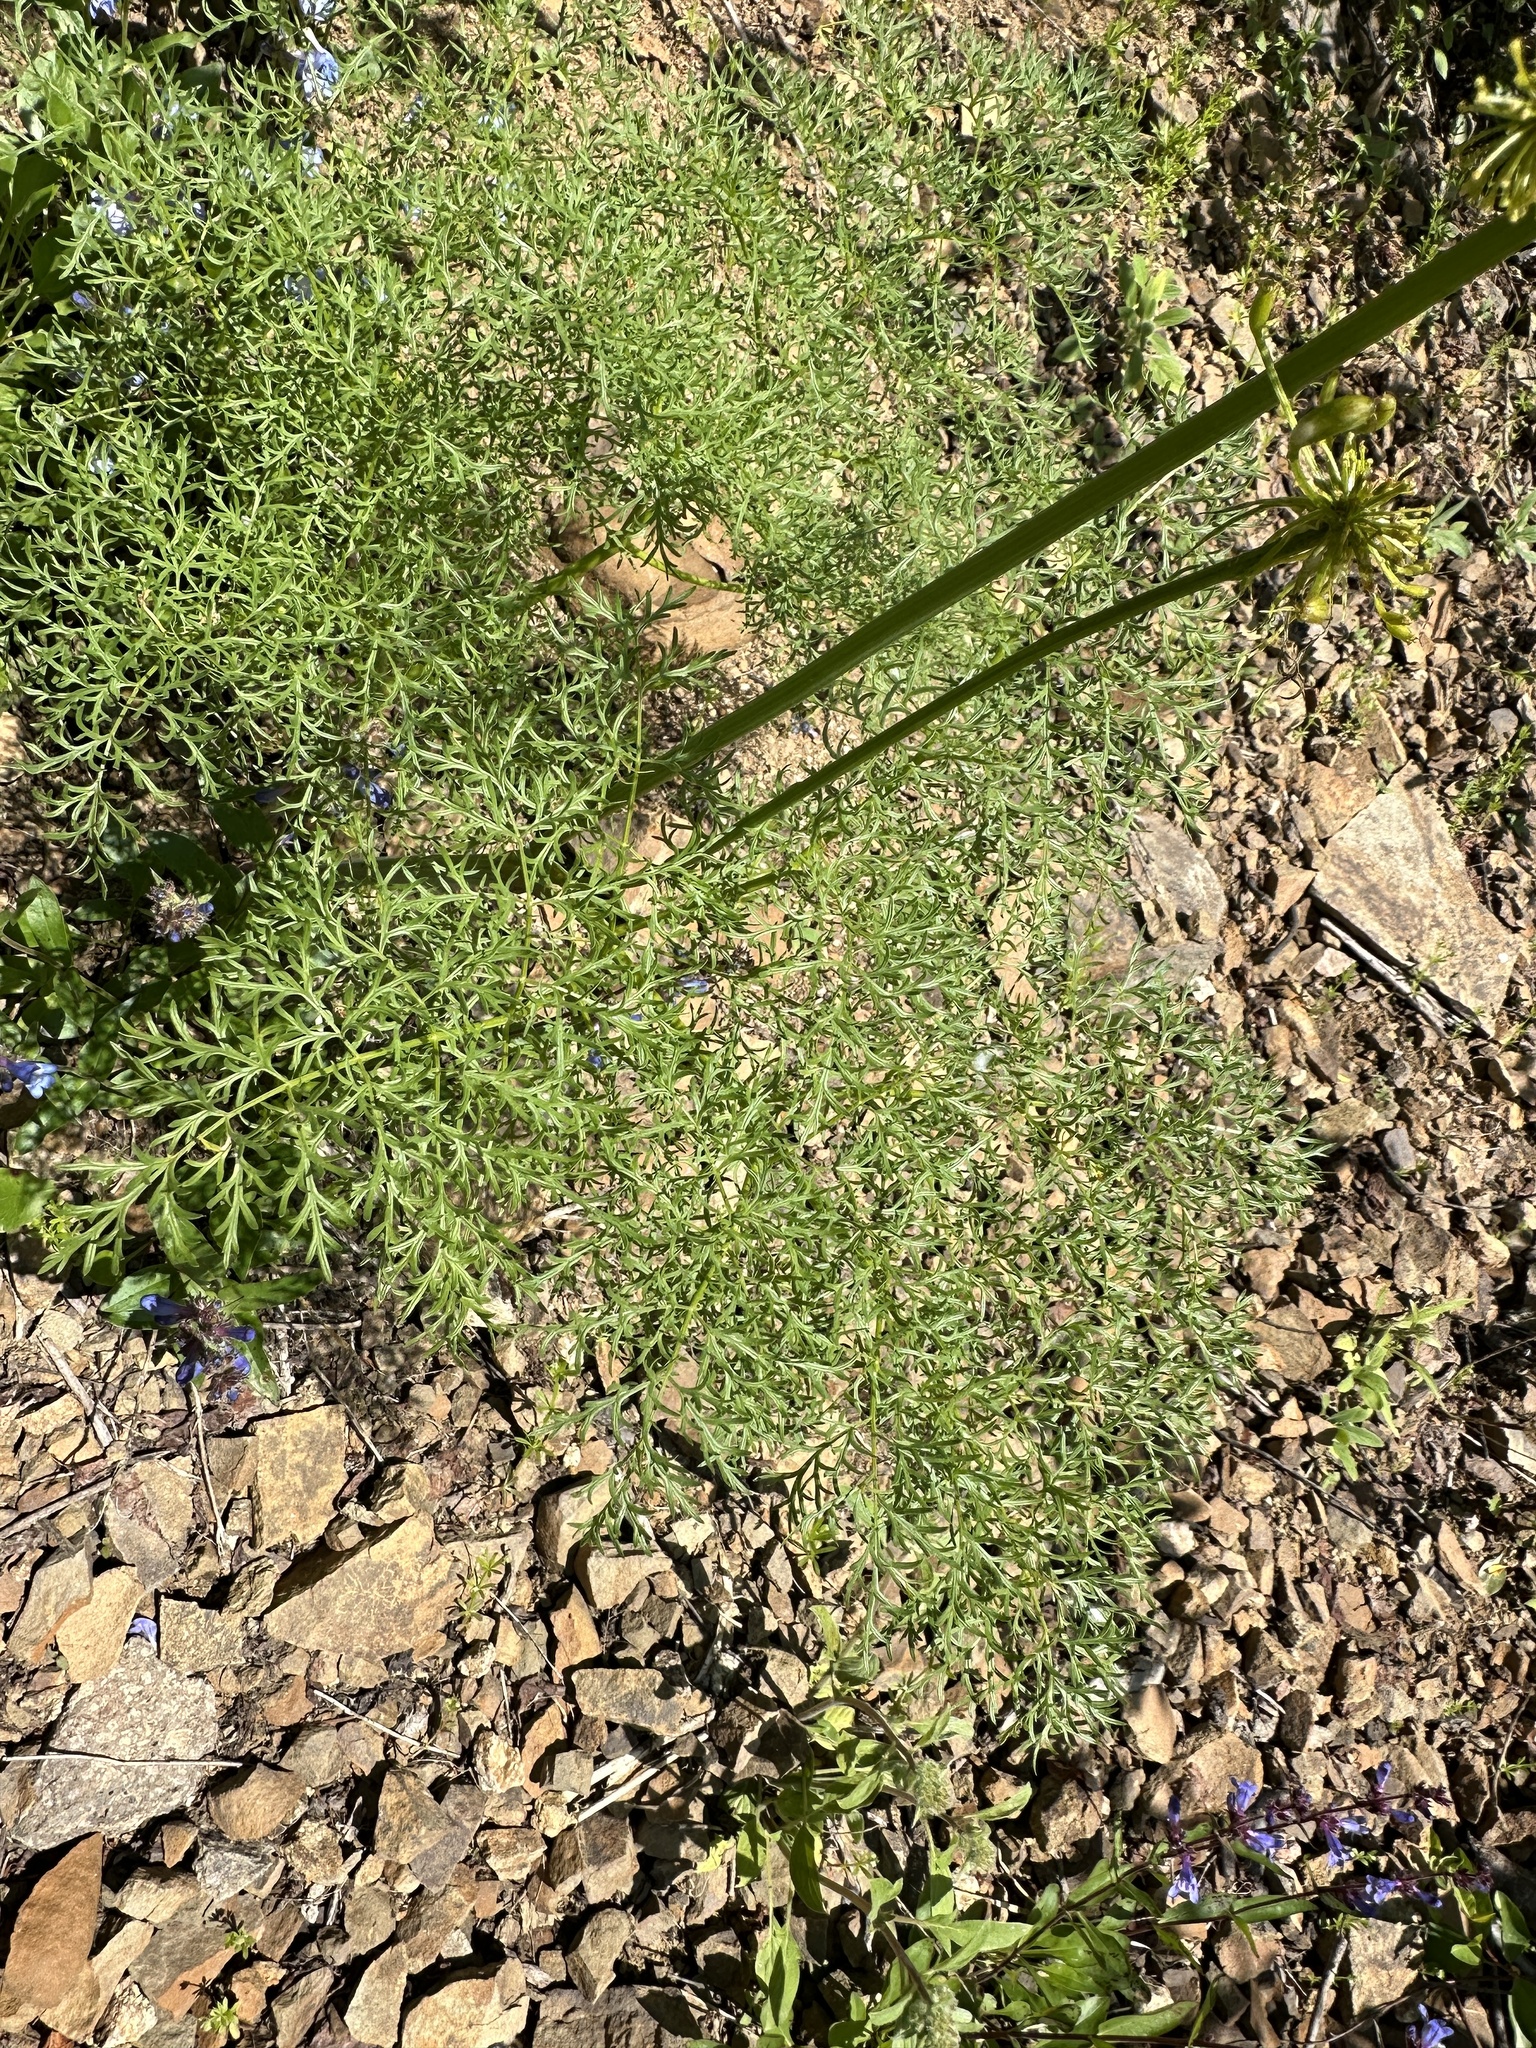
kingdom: Plantae
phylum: Tracheophyta
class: Magnoliopsida
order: Apiales
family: Apiaceae
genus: Lomatium
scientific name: Lomatium multifidum
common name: Carrot-leaved biscuitroot
